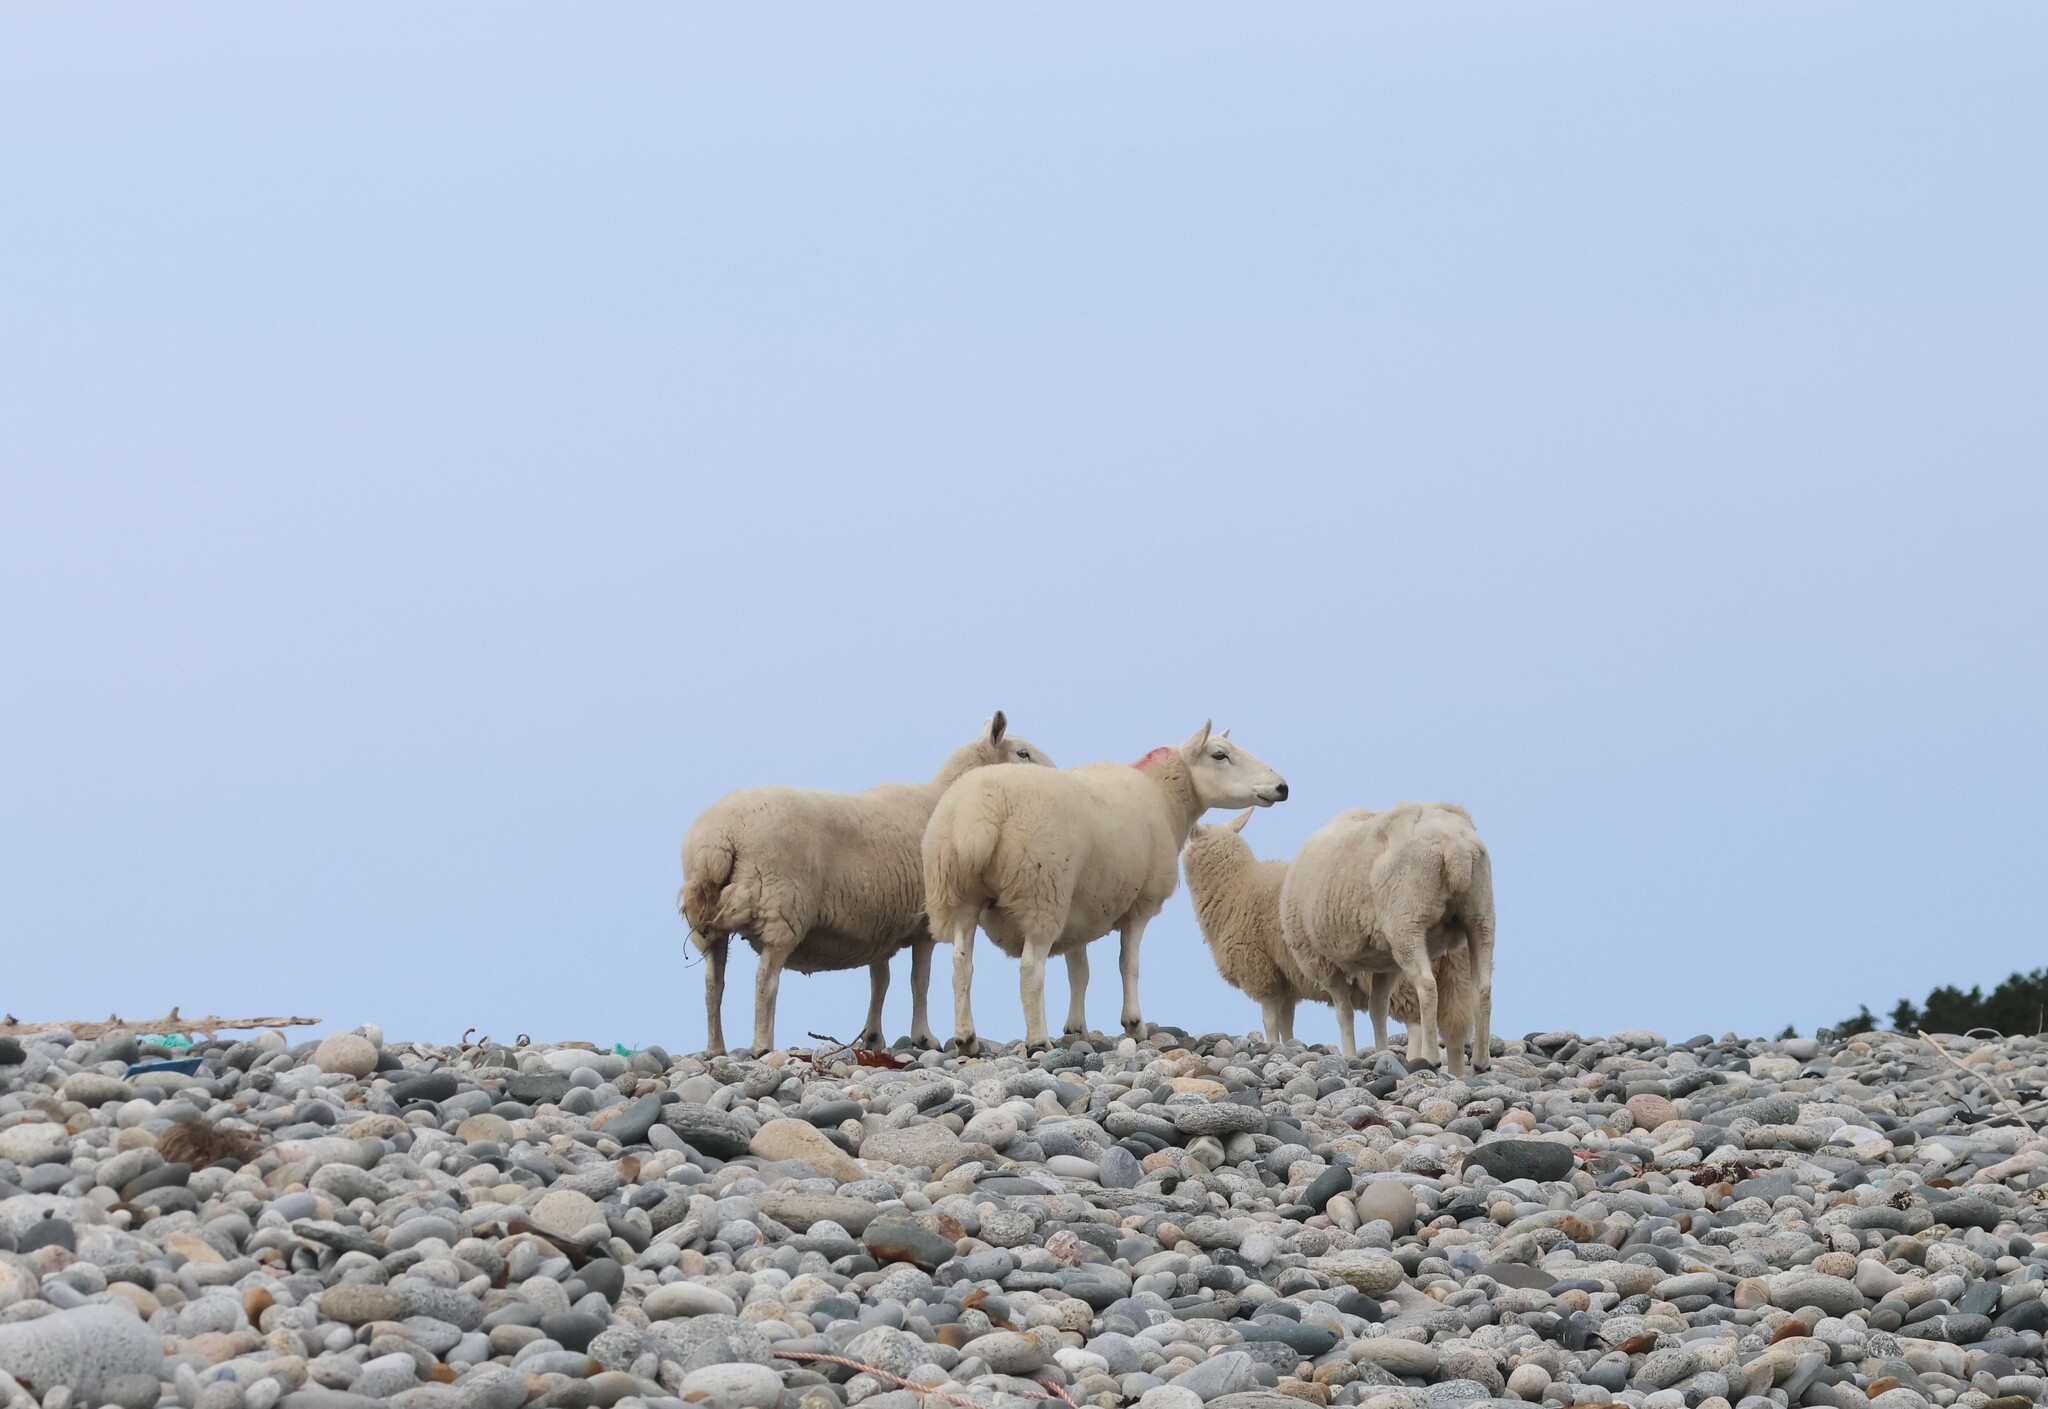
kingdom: Animalia
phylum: Chordata
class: Mammalia
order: Artiodactyla
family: Bovidae
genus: Ovis
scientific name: Ovis aries
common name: Domestic sheep
